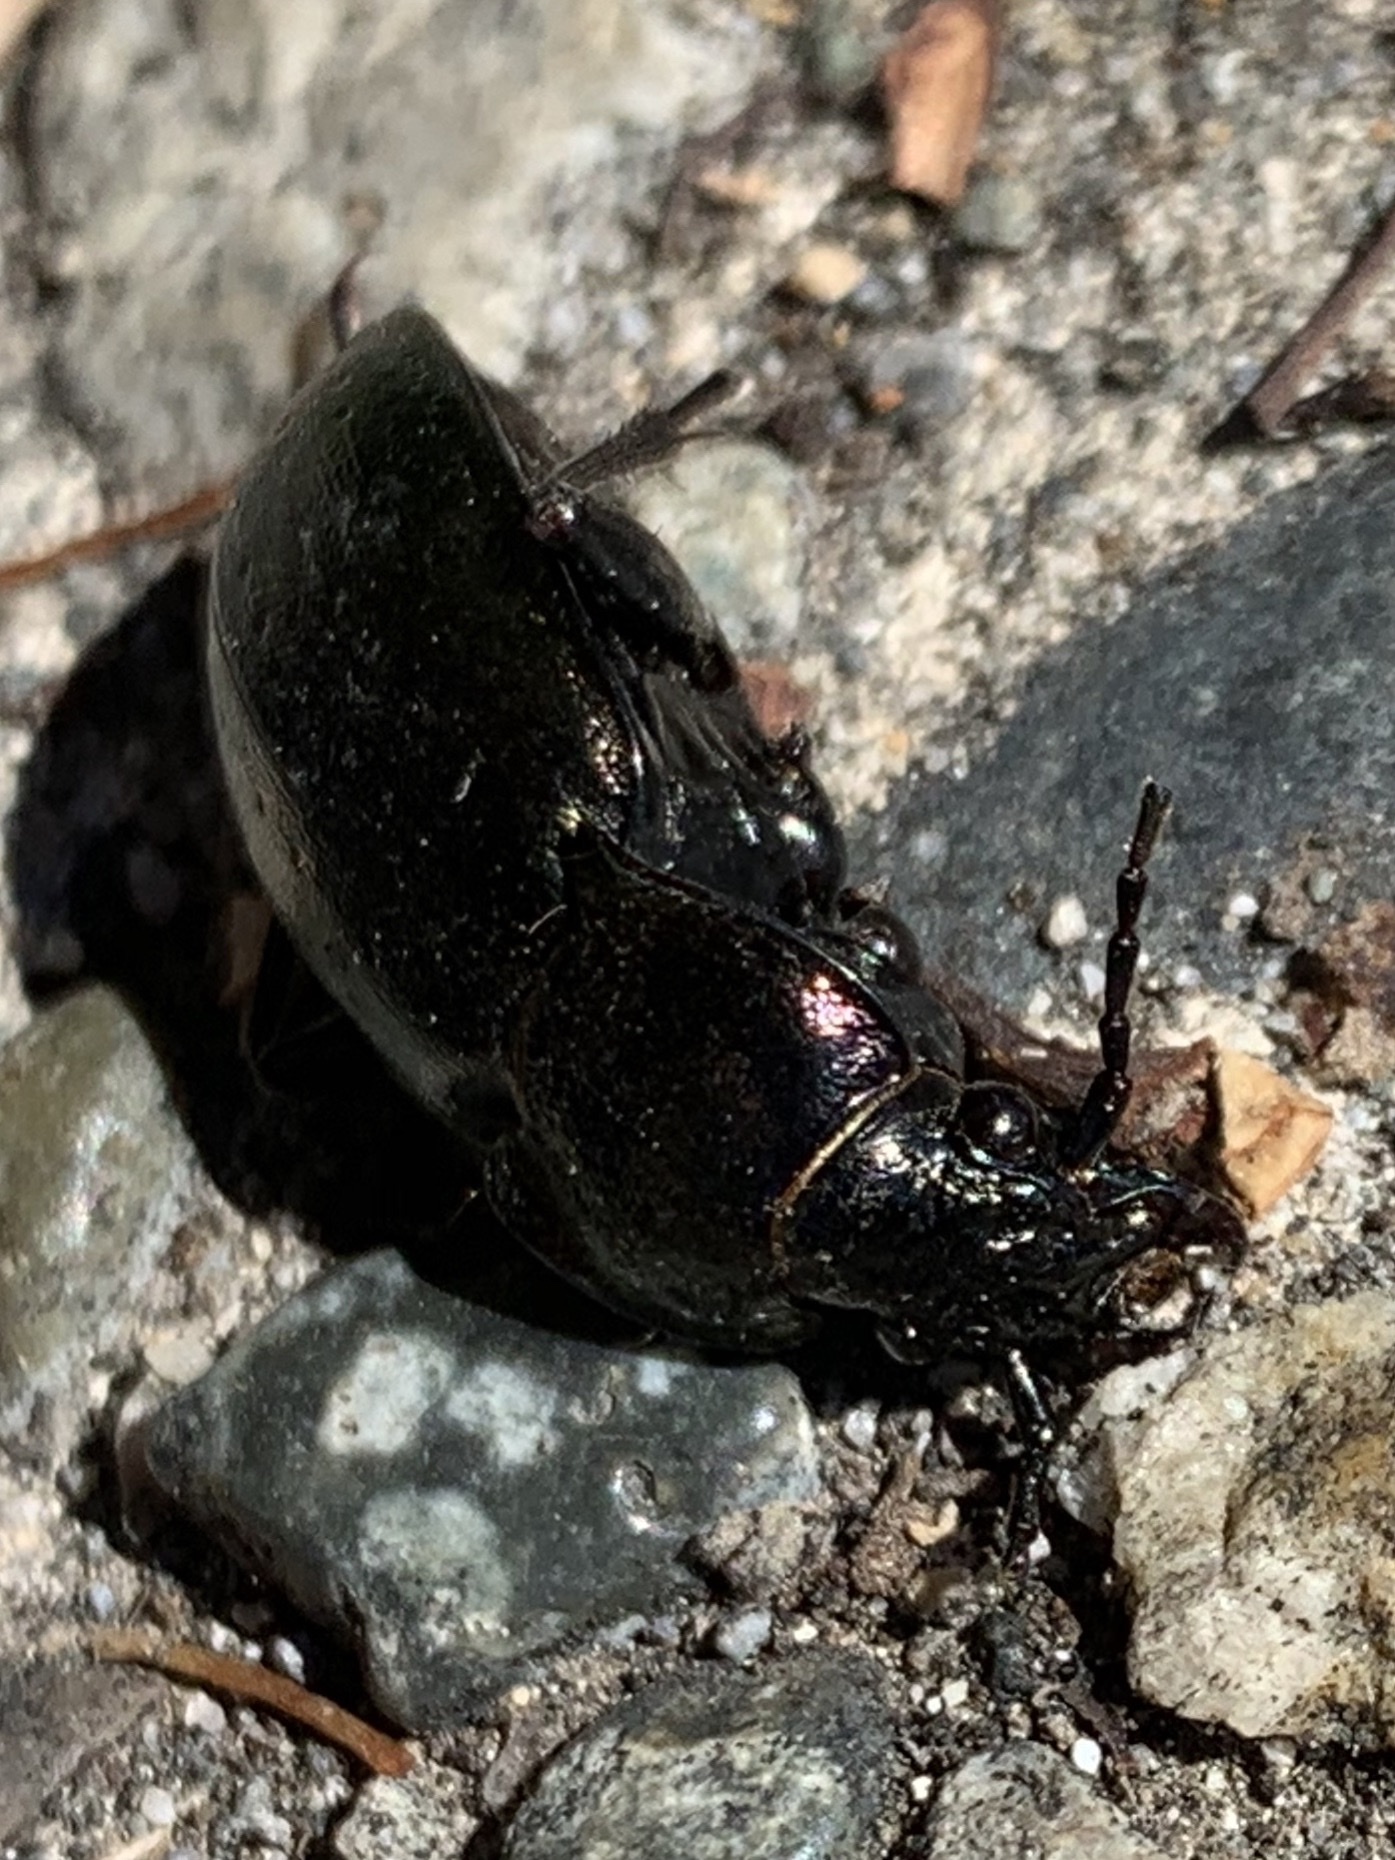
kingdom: Animalia
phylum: Arthropoda
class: Insecta
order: Coleoptera
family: Carabidae
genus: Carabus
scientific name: Carabus nemoralis
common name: European ground beetle
